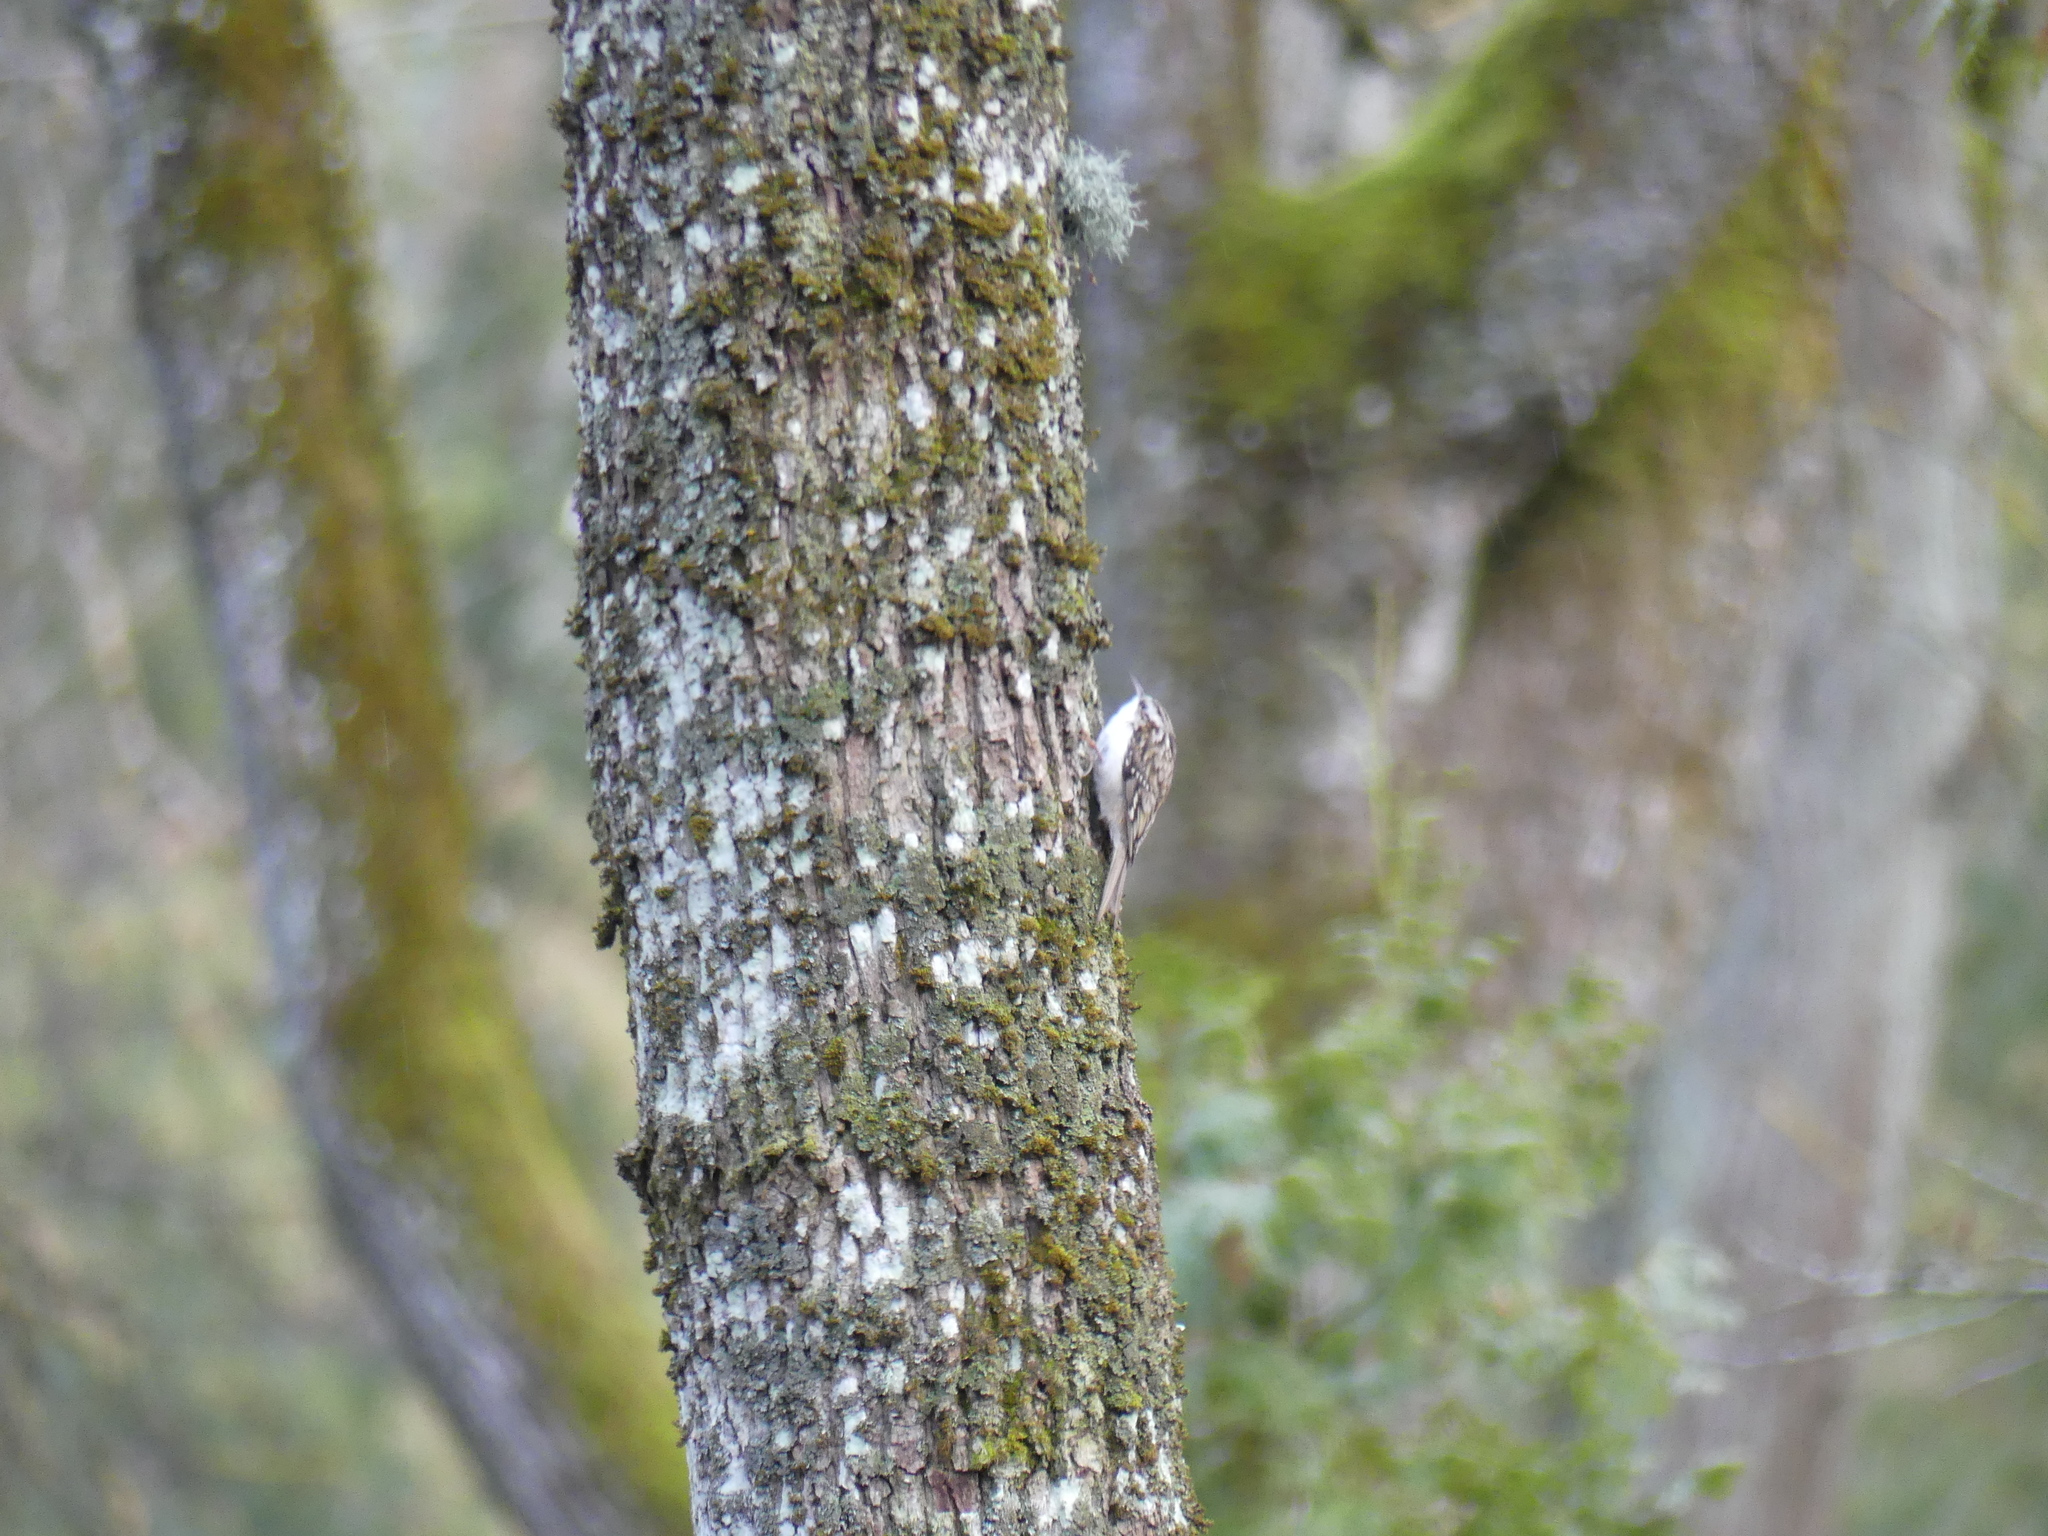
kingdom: Animalia
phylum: Chordata
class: Aves
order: Passeriformes
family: Certhiidae
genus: Certhia
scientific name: Certhia familiaris
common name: Eurasian treecreeper
